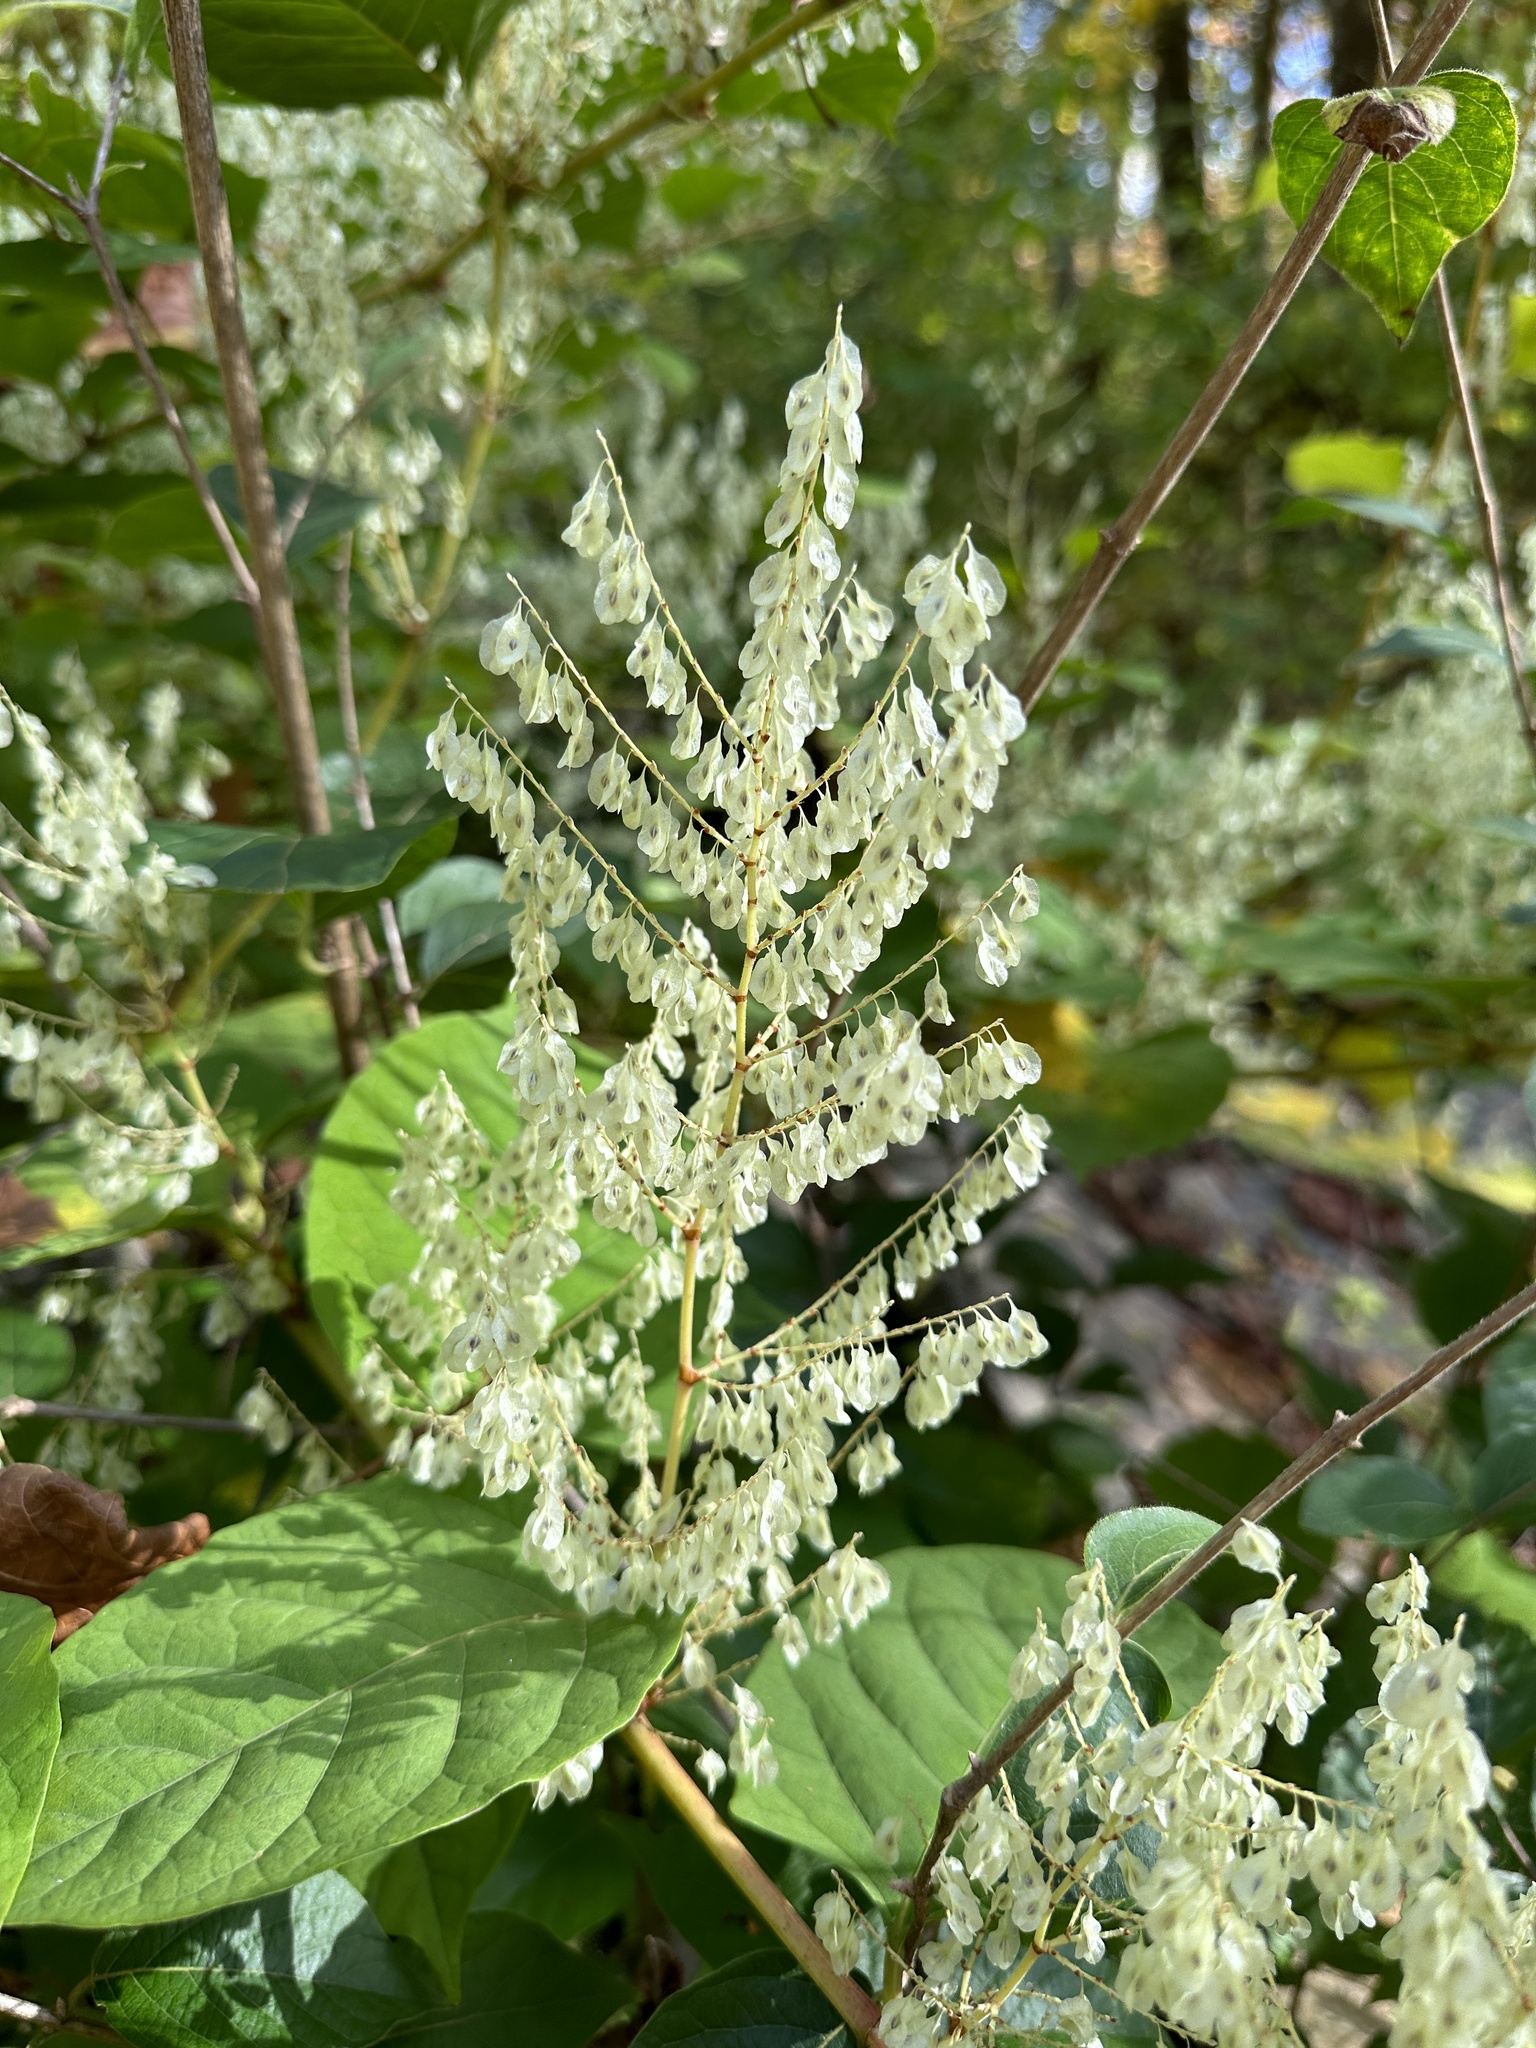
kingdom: Plantae
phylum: Tracheophyta
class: Magnoliopsida
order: Caryophyllales
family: Polygonaceae
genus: Reynoutria
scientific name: Reynoutria japonica
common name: Japanese knotweed
